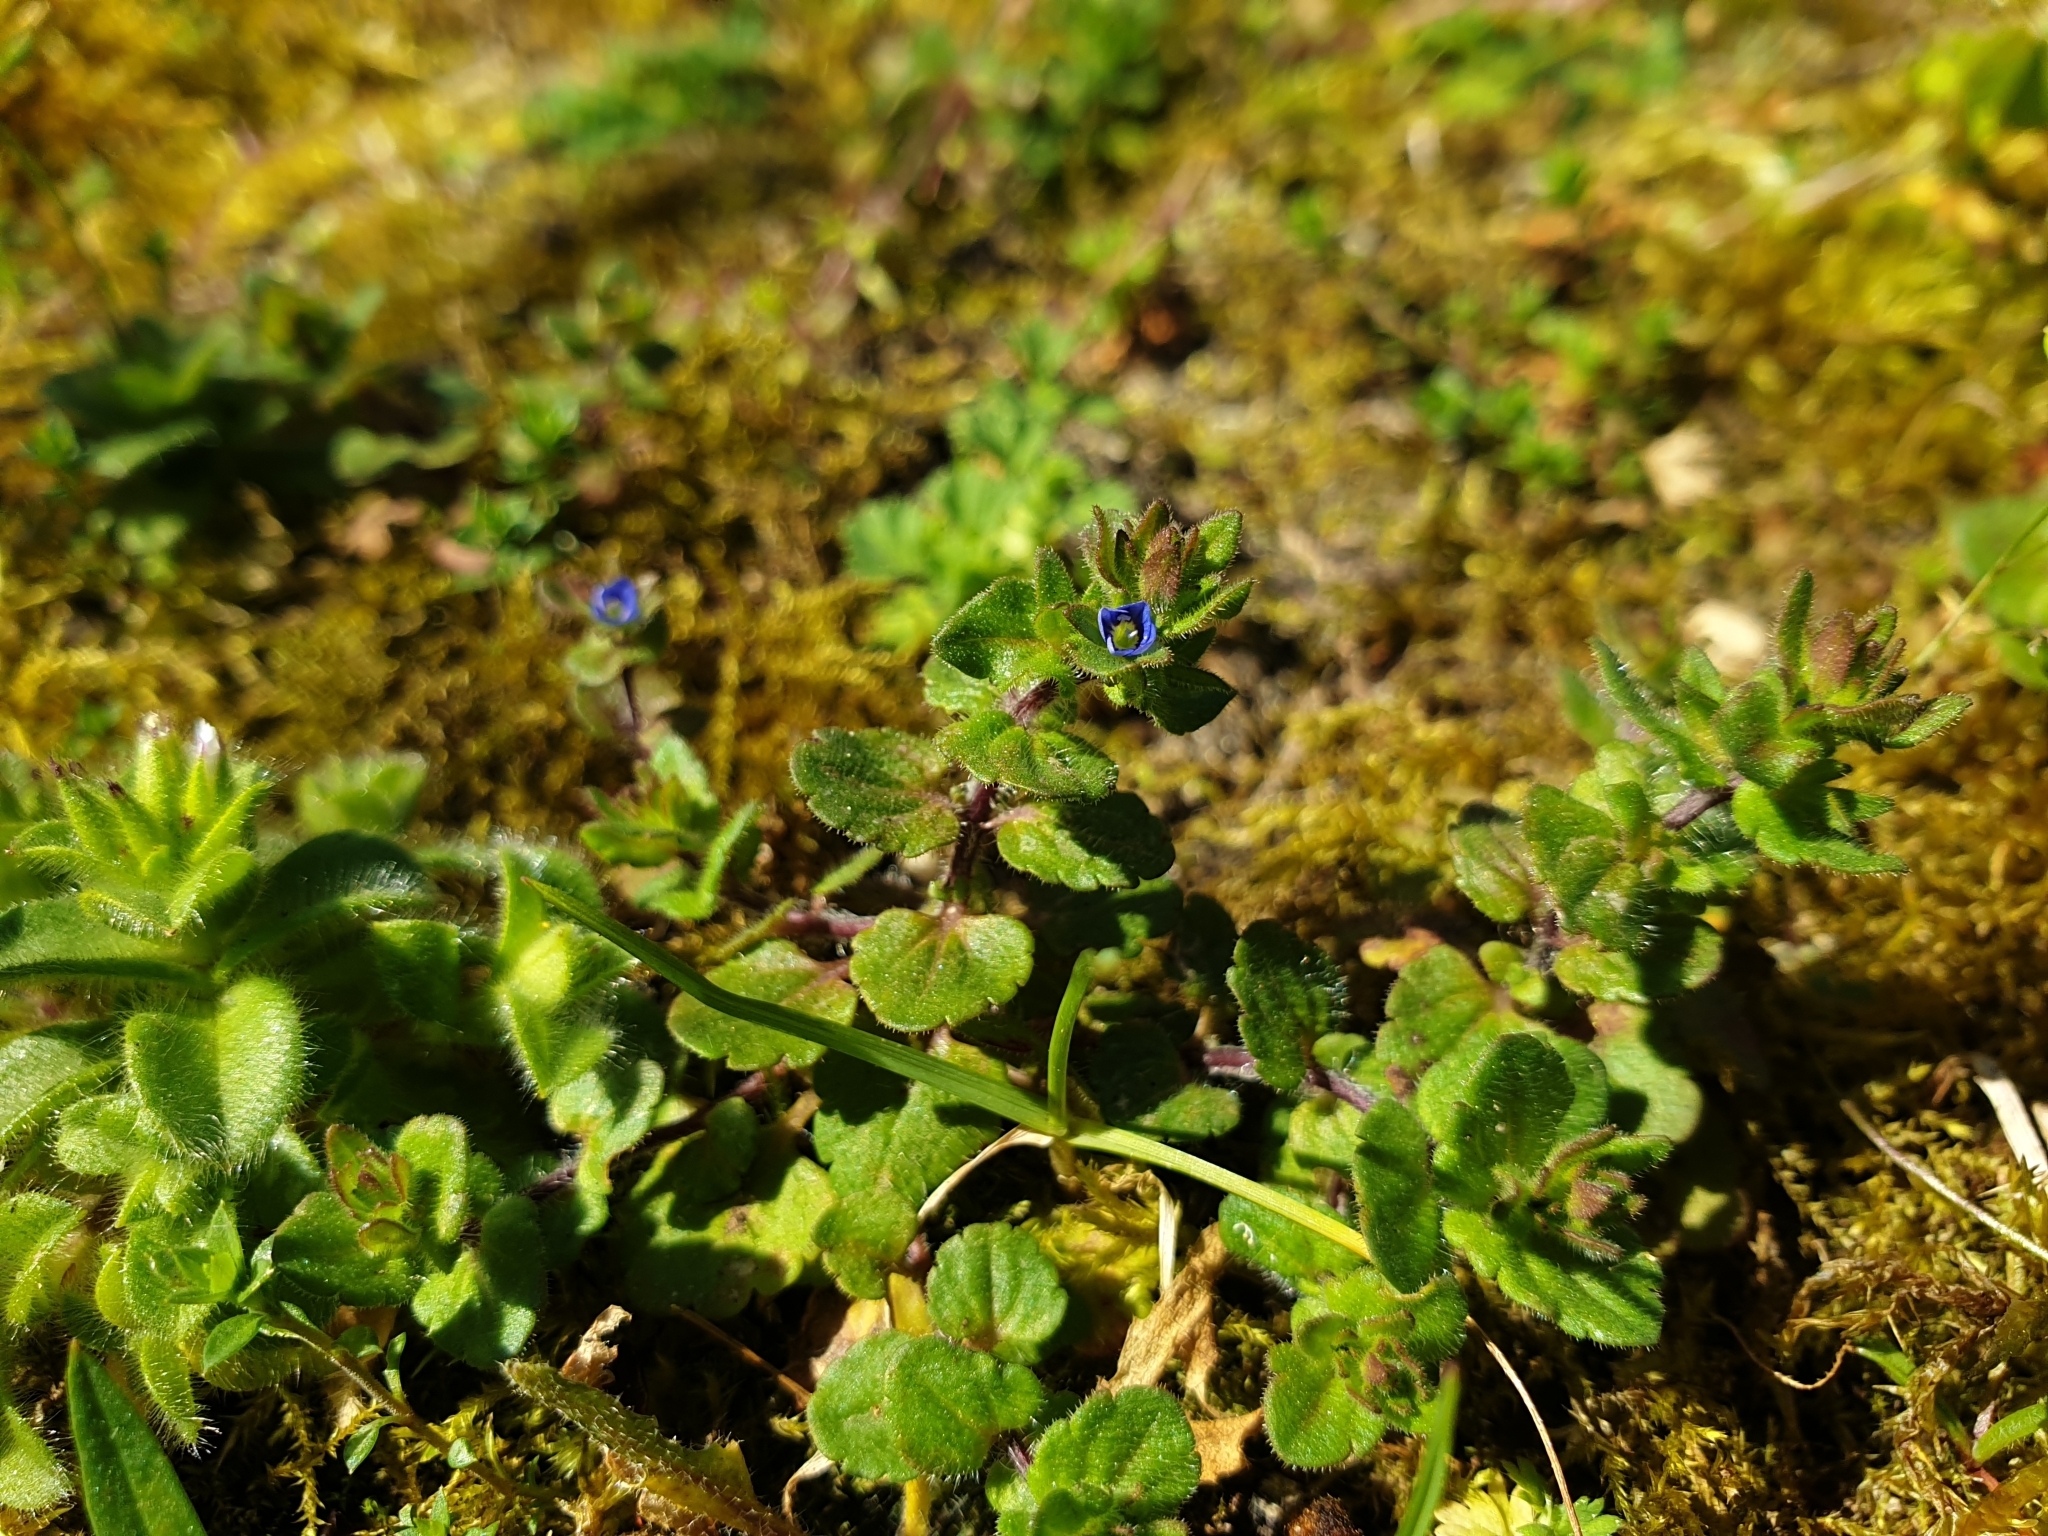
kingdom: Plantae
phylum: Tracheophyta
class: Magnoliopsida
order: Lamiales
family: Plantaginaceae
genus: Veronica
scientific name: Veronica arvensis
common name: Corn speedwell
